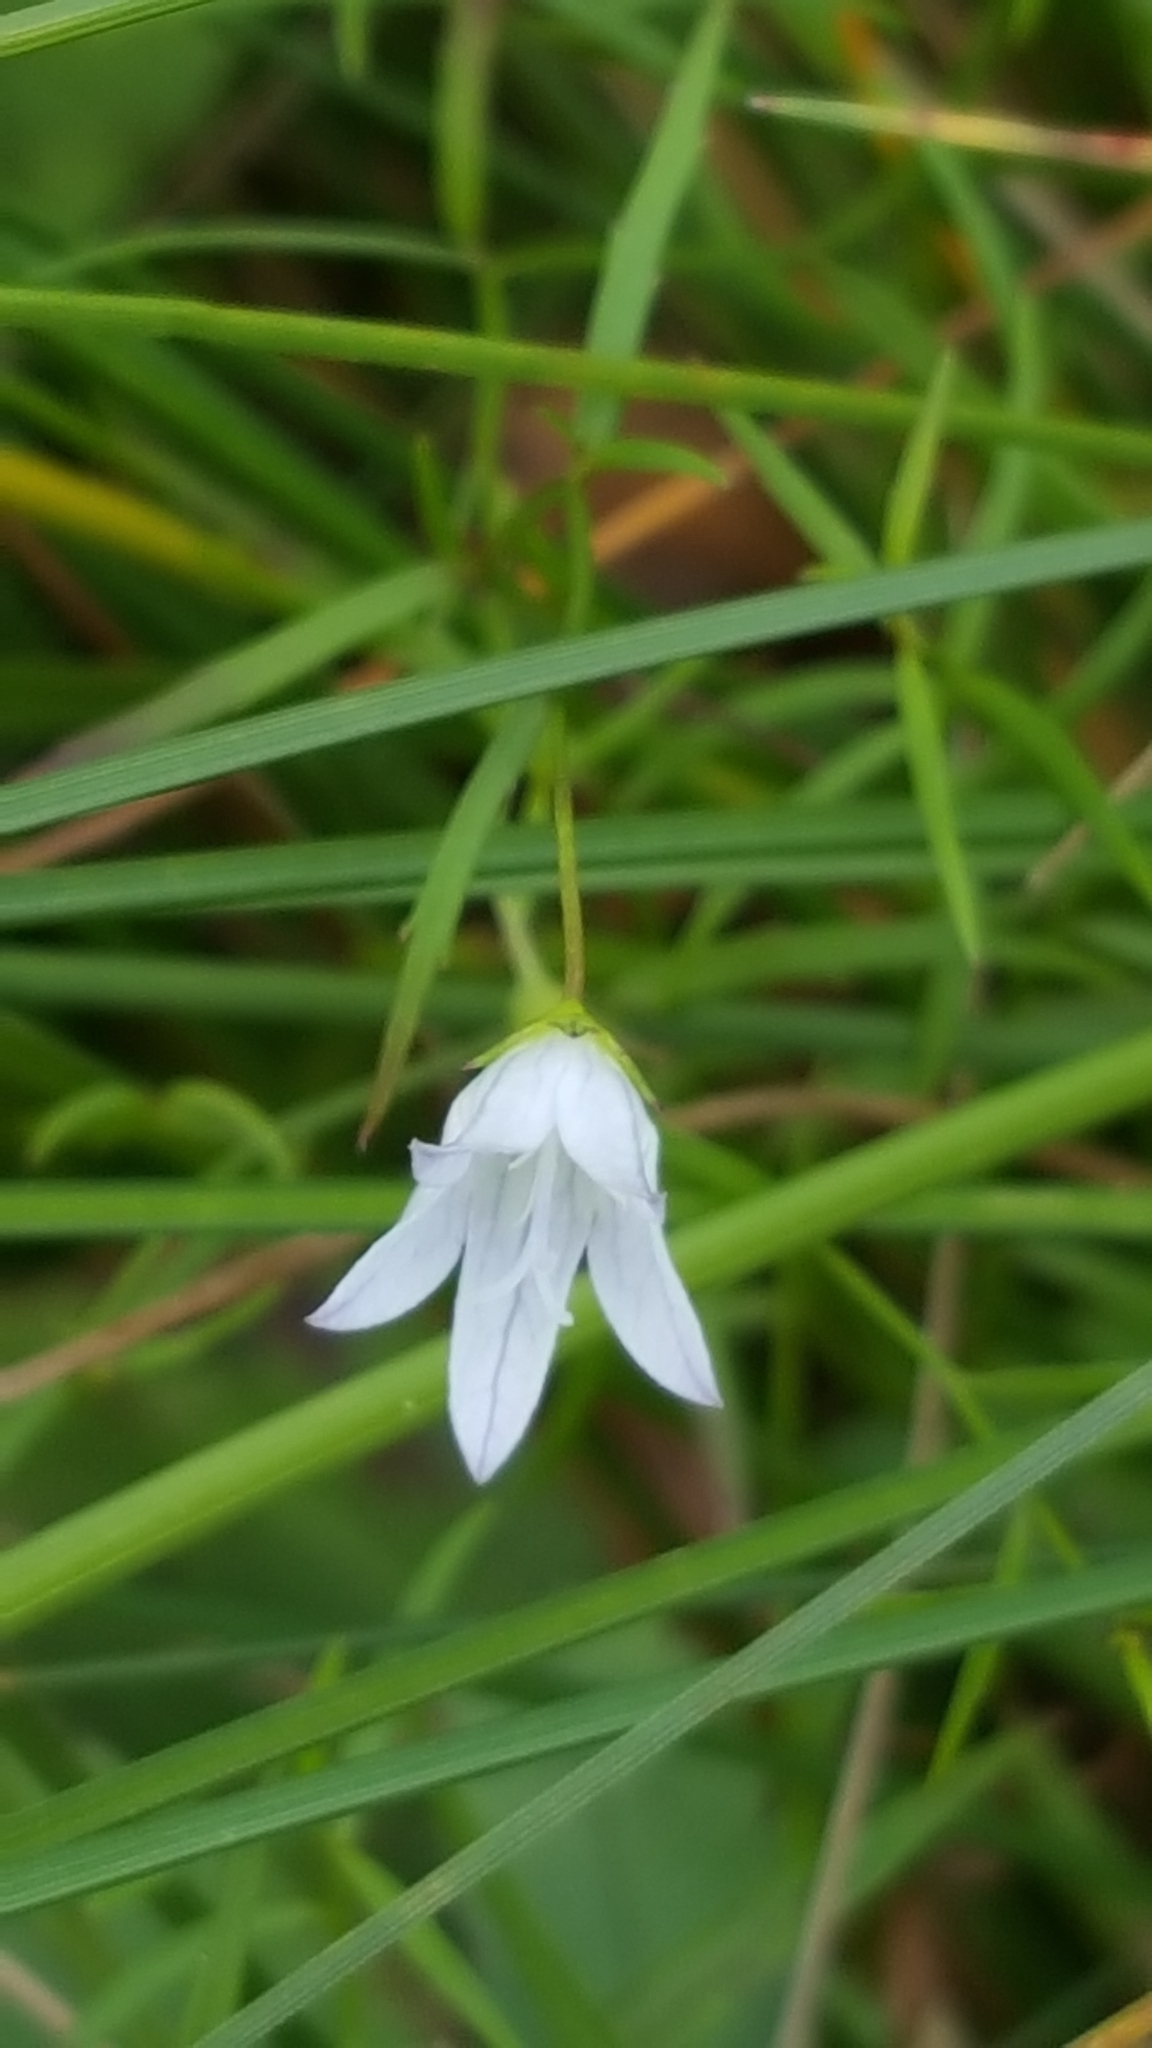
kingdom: Plantae
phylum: Tracheophyta
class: Magnoliopsida
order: Asterales
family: Campanulaceae
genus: Palustricodon
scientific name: Palustricodon aparinoides
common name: Bedstraw bellflower
